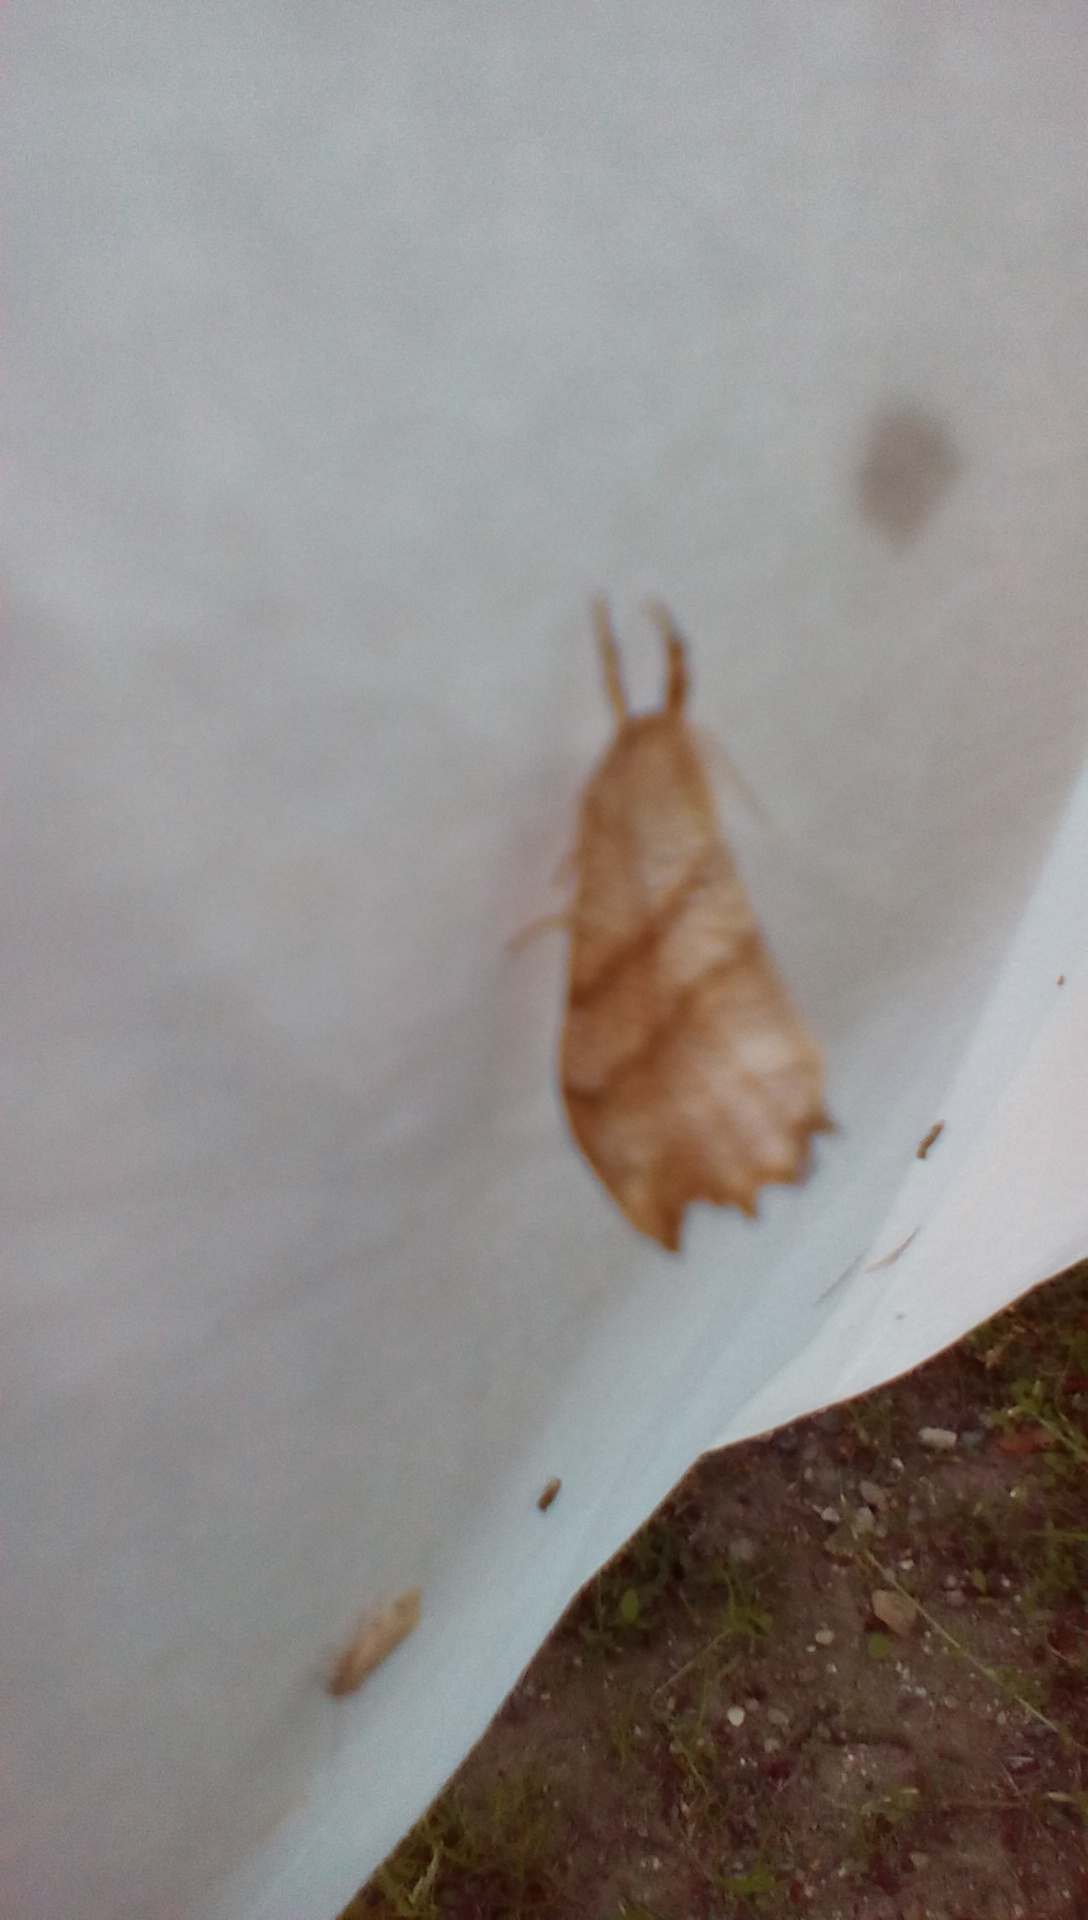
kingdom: Animalia
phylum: Arthropoda
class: Insecta
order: Lepidoptera
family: Drepanidae
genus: Falcaria
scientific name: Falcaria bilineata
